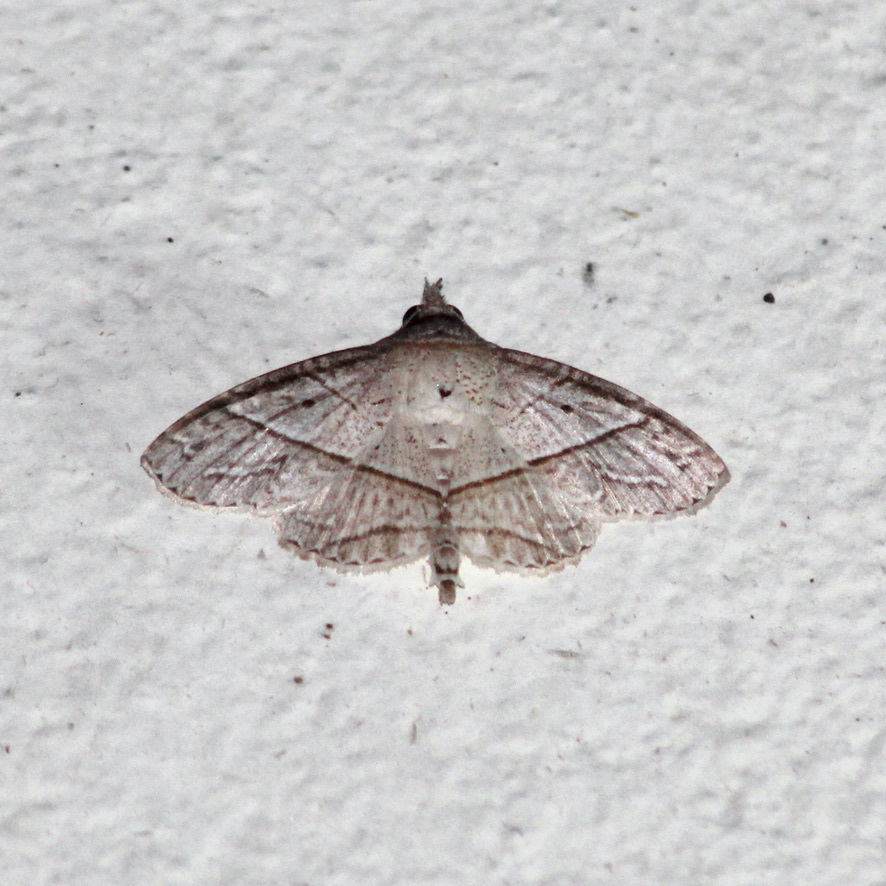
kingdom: Animalia
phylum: Arthropoda
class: Insecta
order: Lepidoptera
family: Erebidae
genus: Antiblemma
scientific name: Antiblemma deois
